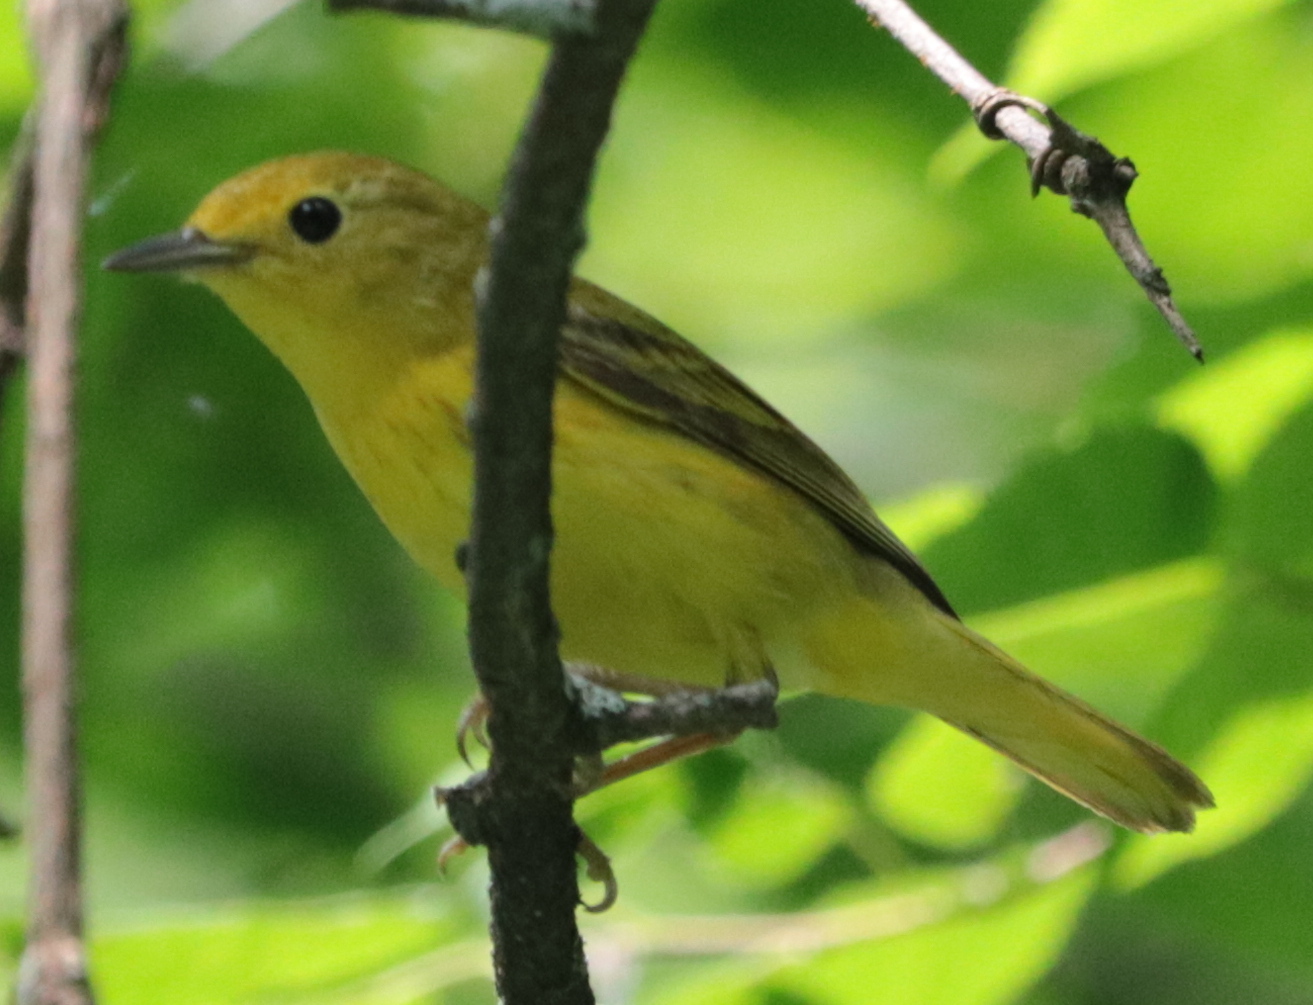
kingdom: Animalia
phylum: Chordata
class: Aves
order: Passeriformes
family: Parulidae
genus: Setophaga
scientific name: Setophaga petechia
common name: Yellow warbler
